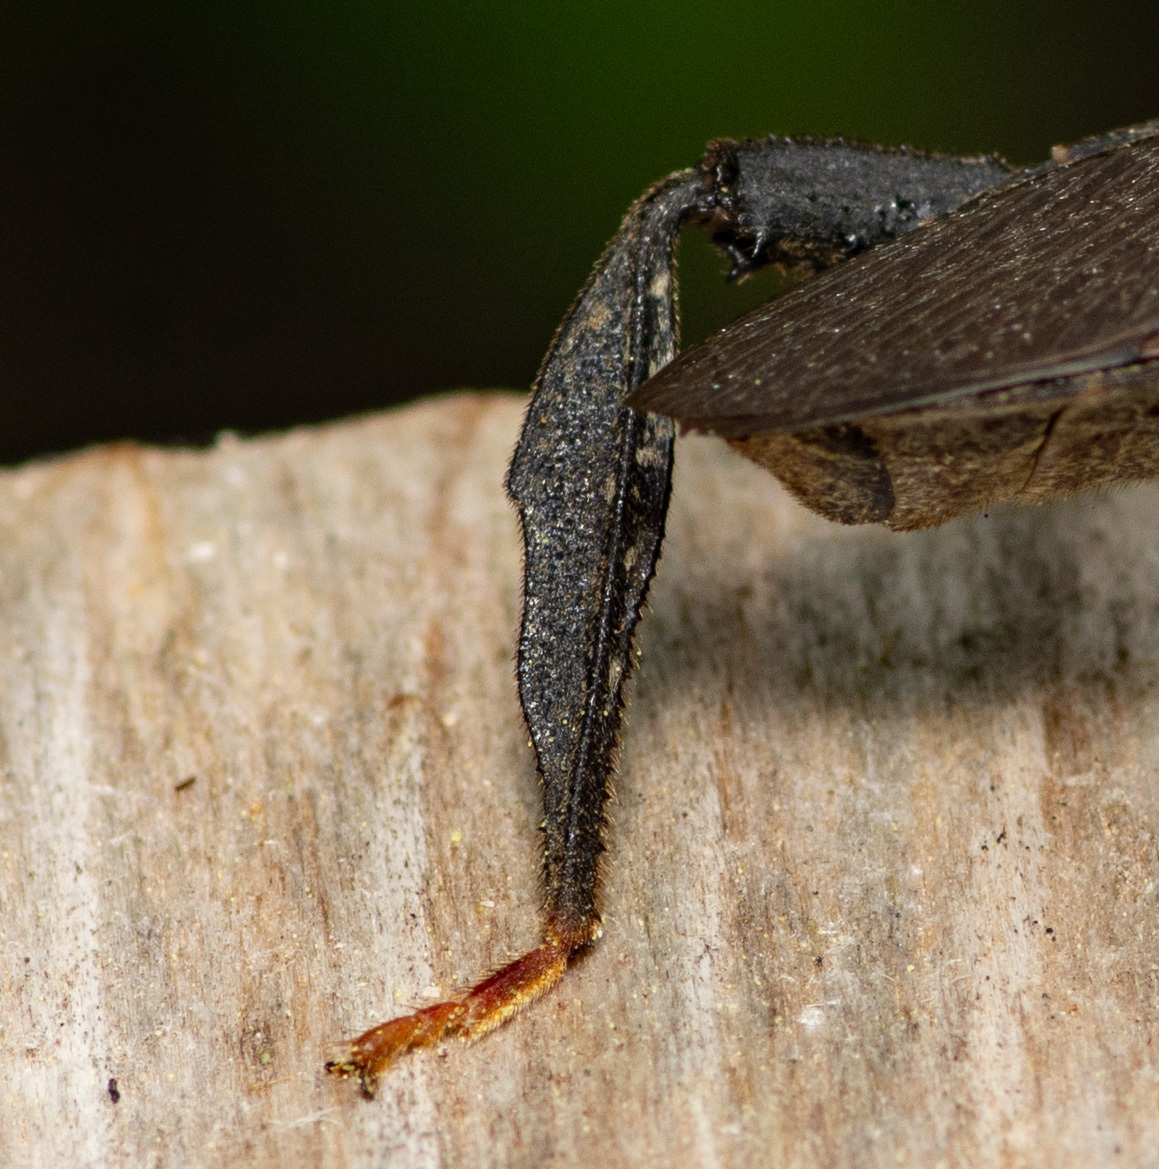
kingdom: Animalia
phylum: Arthropoda
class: Insecta
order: Hemiptera
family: Coreidae
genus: Acanthocephala
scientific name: Acanthocephala terminalis
